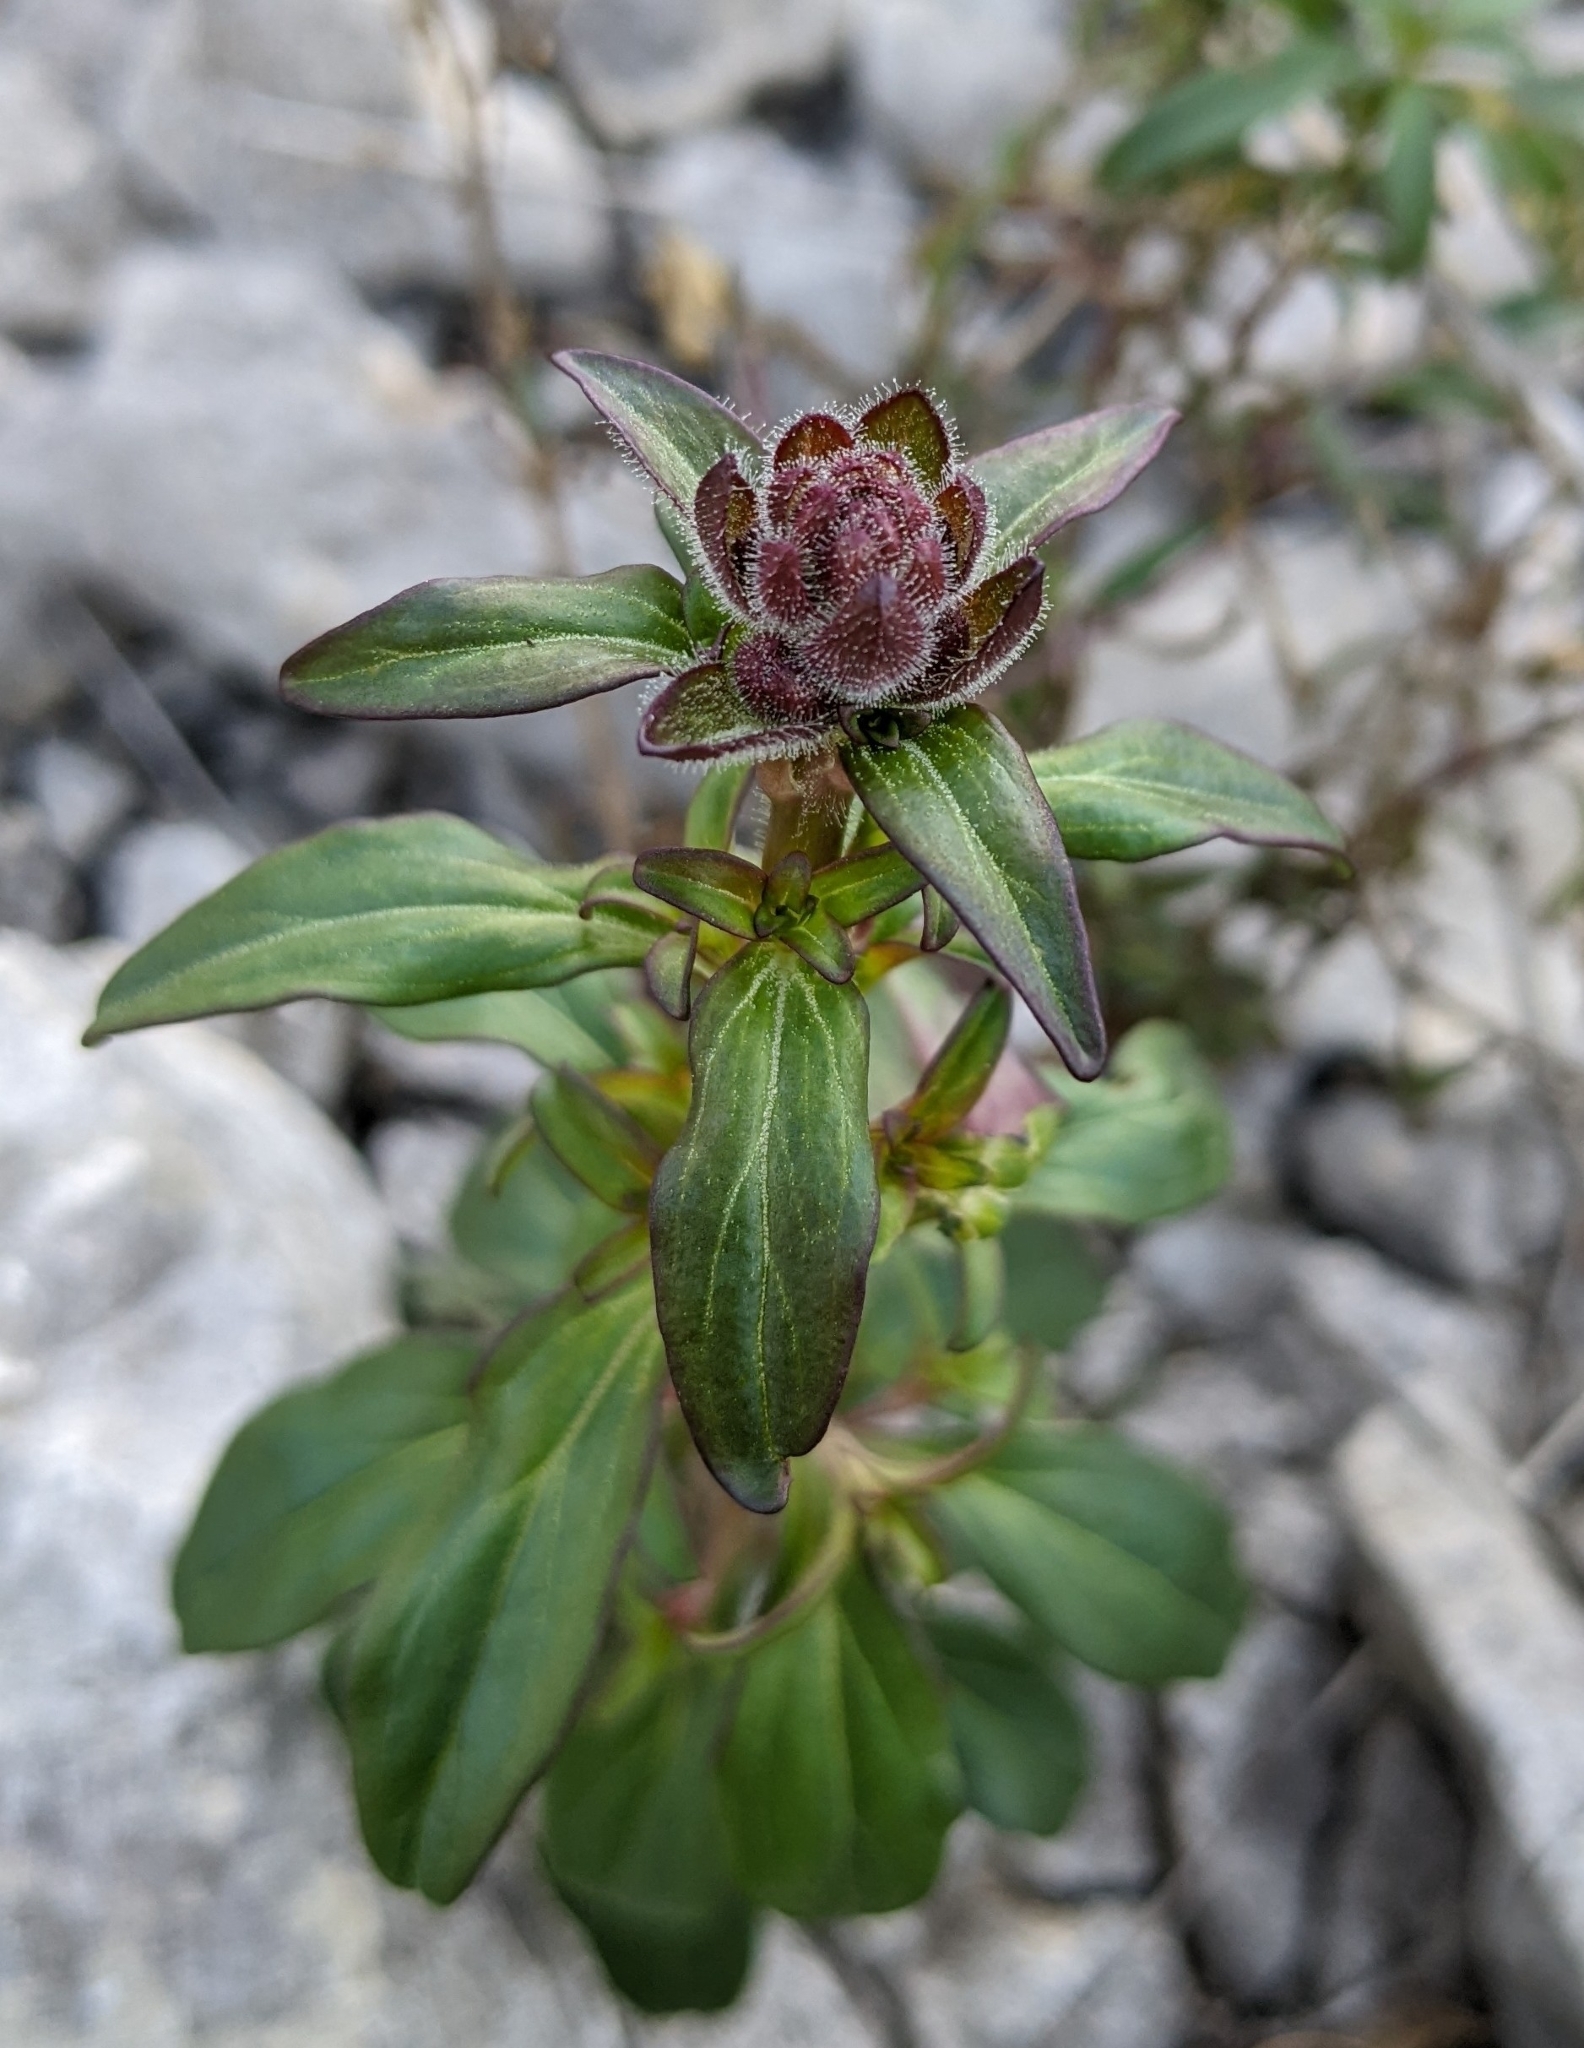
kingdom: Plantae
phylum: Tracheophyta
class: Magnoliopsida
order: Lamiales
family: Plantaginaceae
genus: Antirrhinum
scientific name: Antirrhinum majus
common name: Snapdragon
